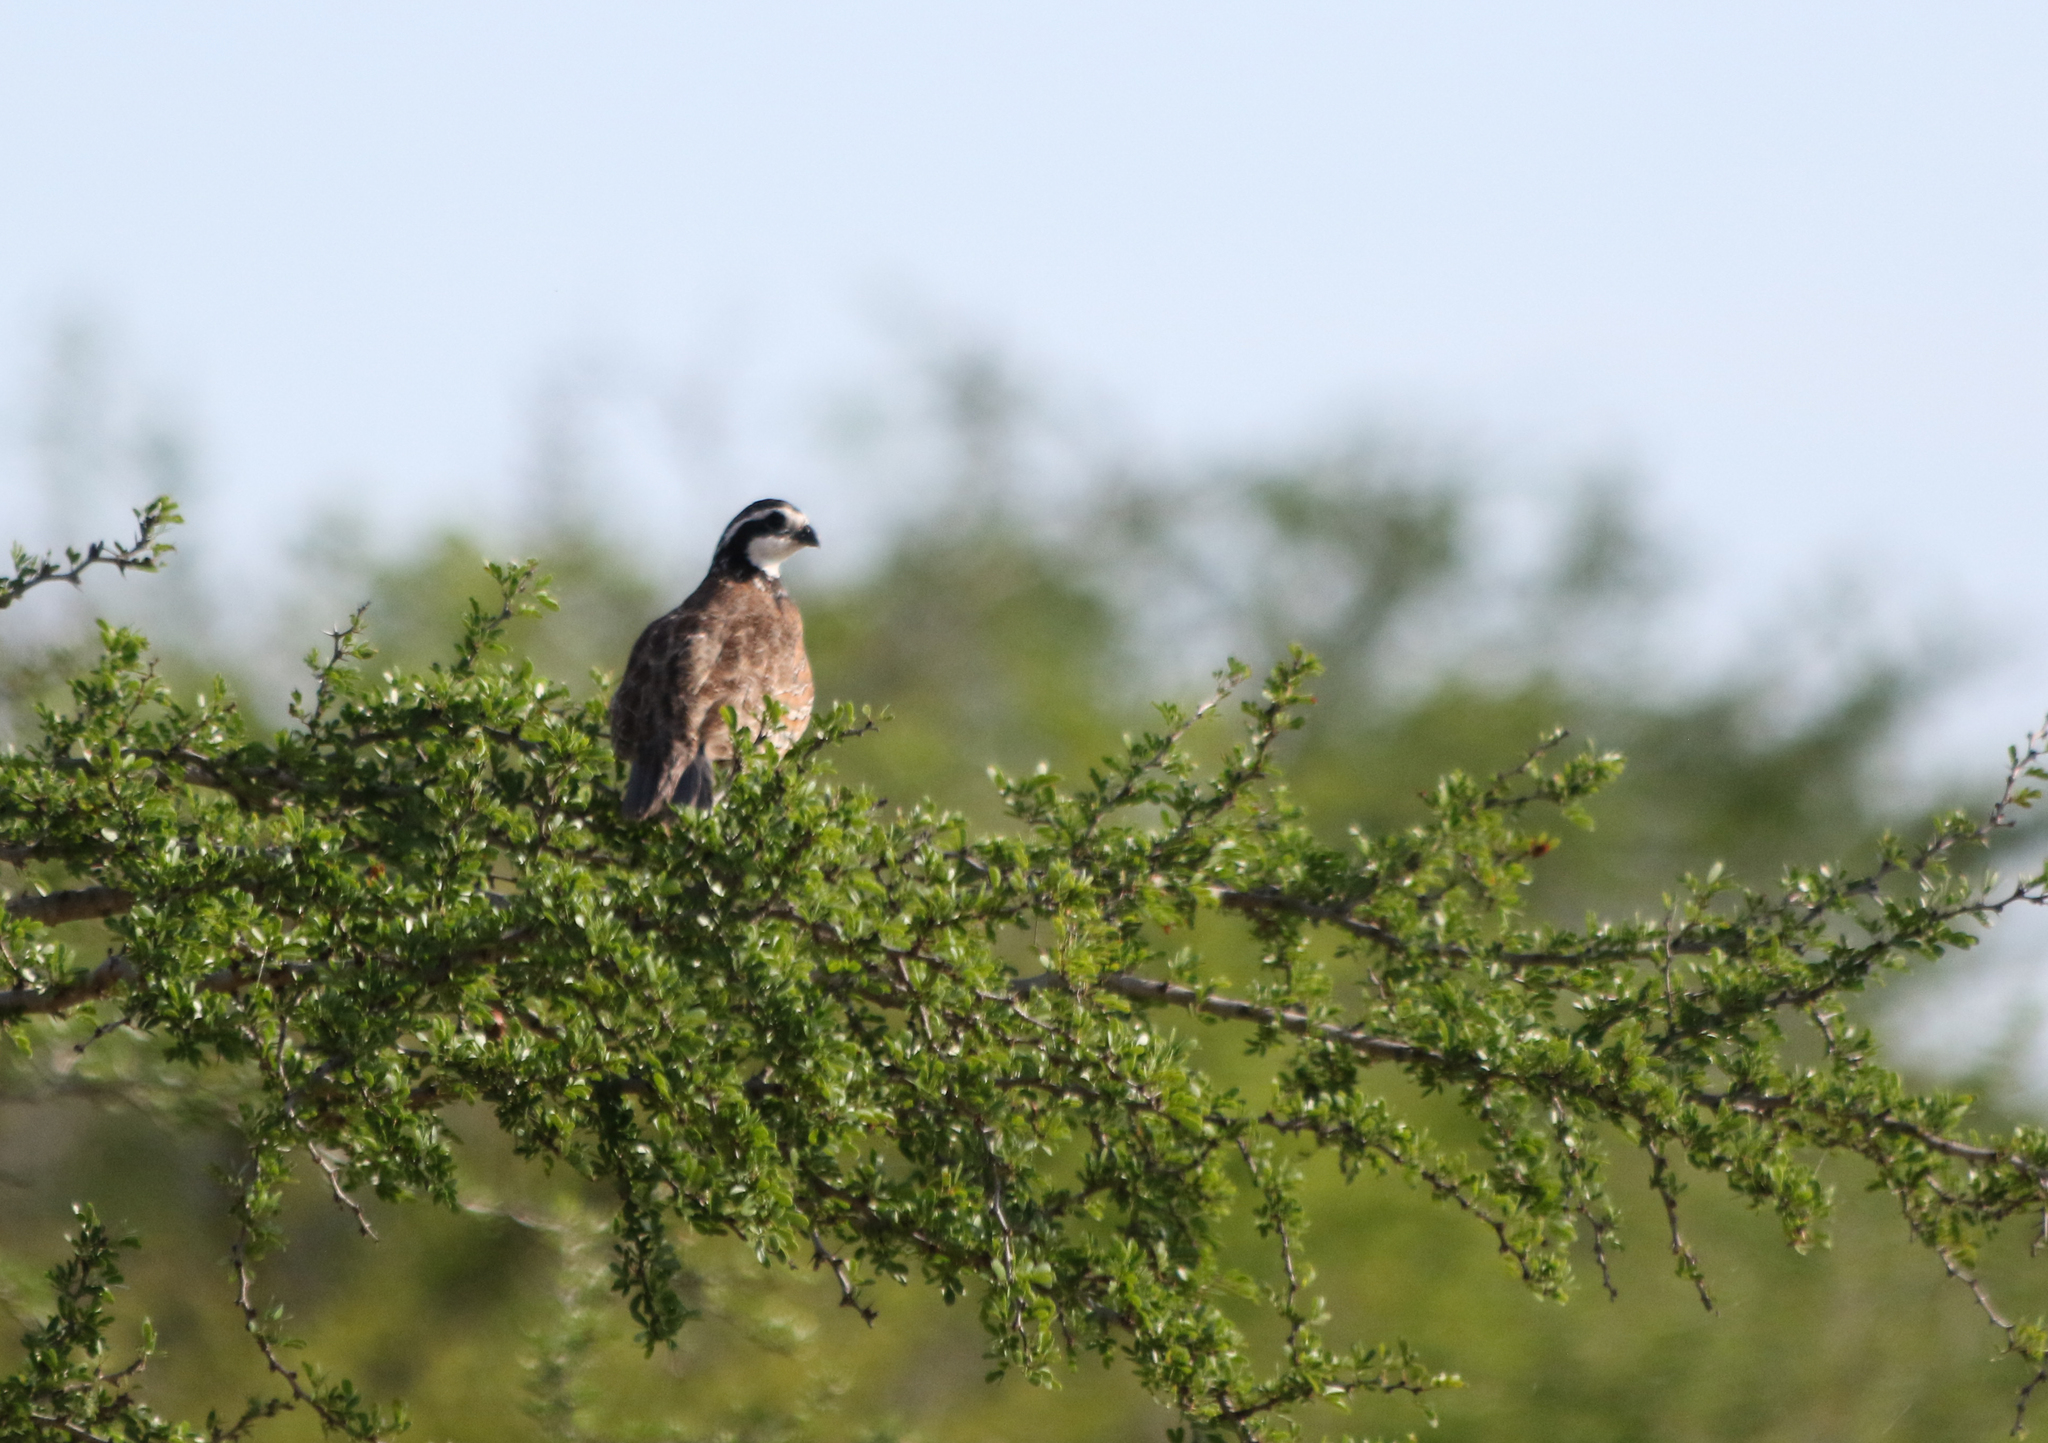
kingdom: Animalia
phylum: Chordata
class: Aves
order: Galliformes
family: Odontophoridae
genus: Colinus
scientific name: Colinus virginianus
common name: Northern bobwhite
